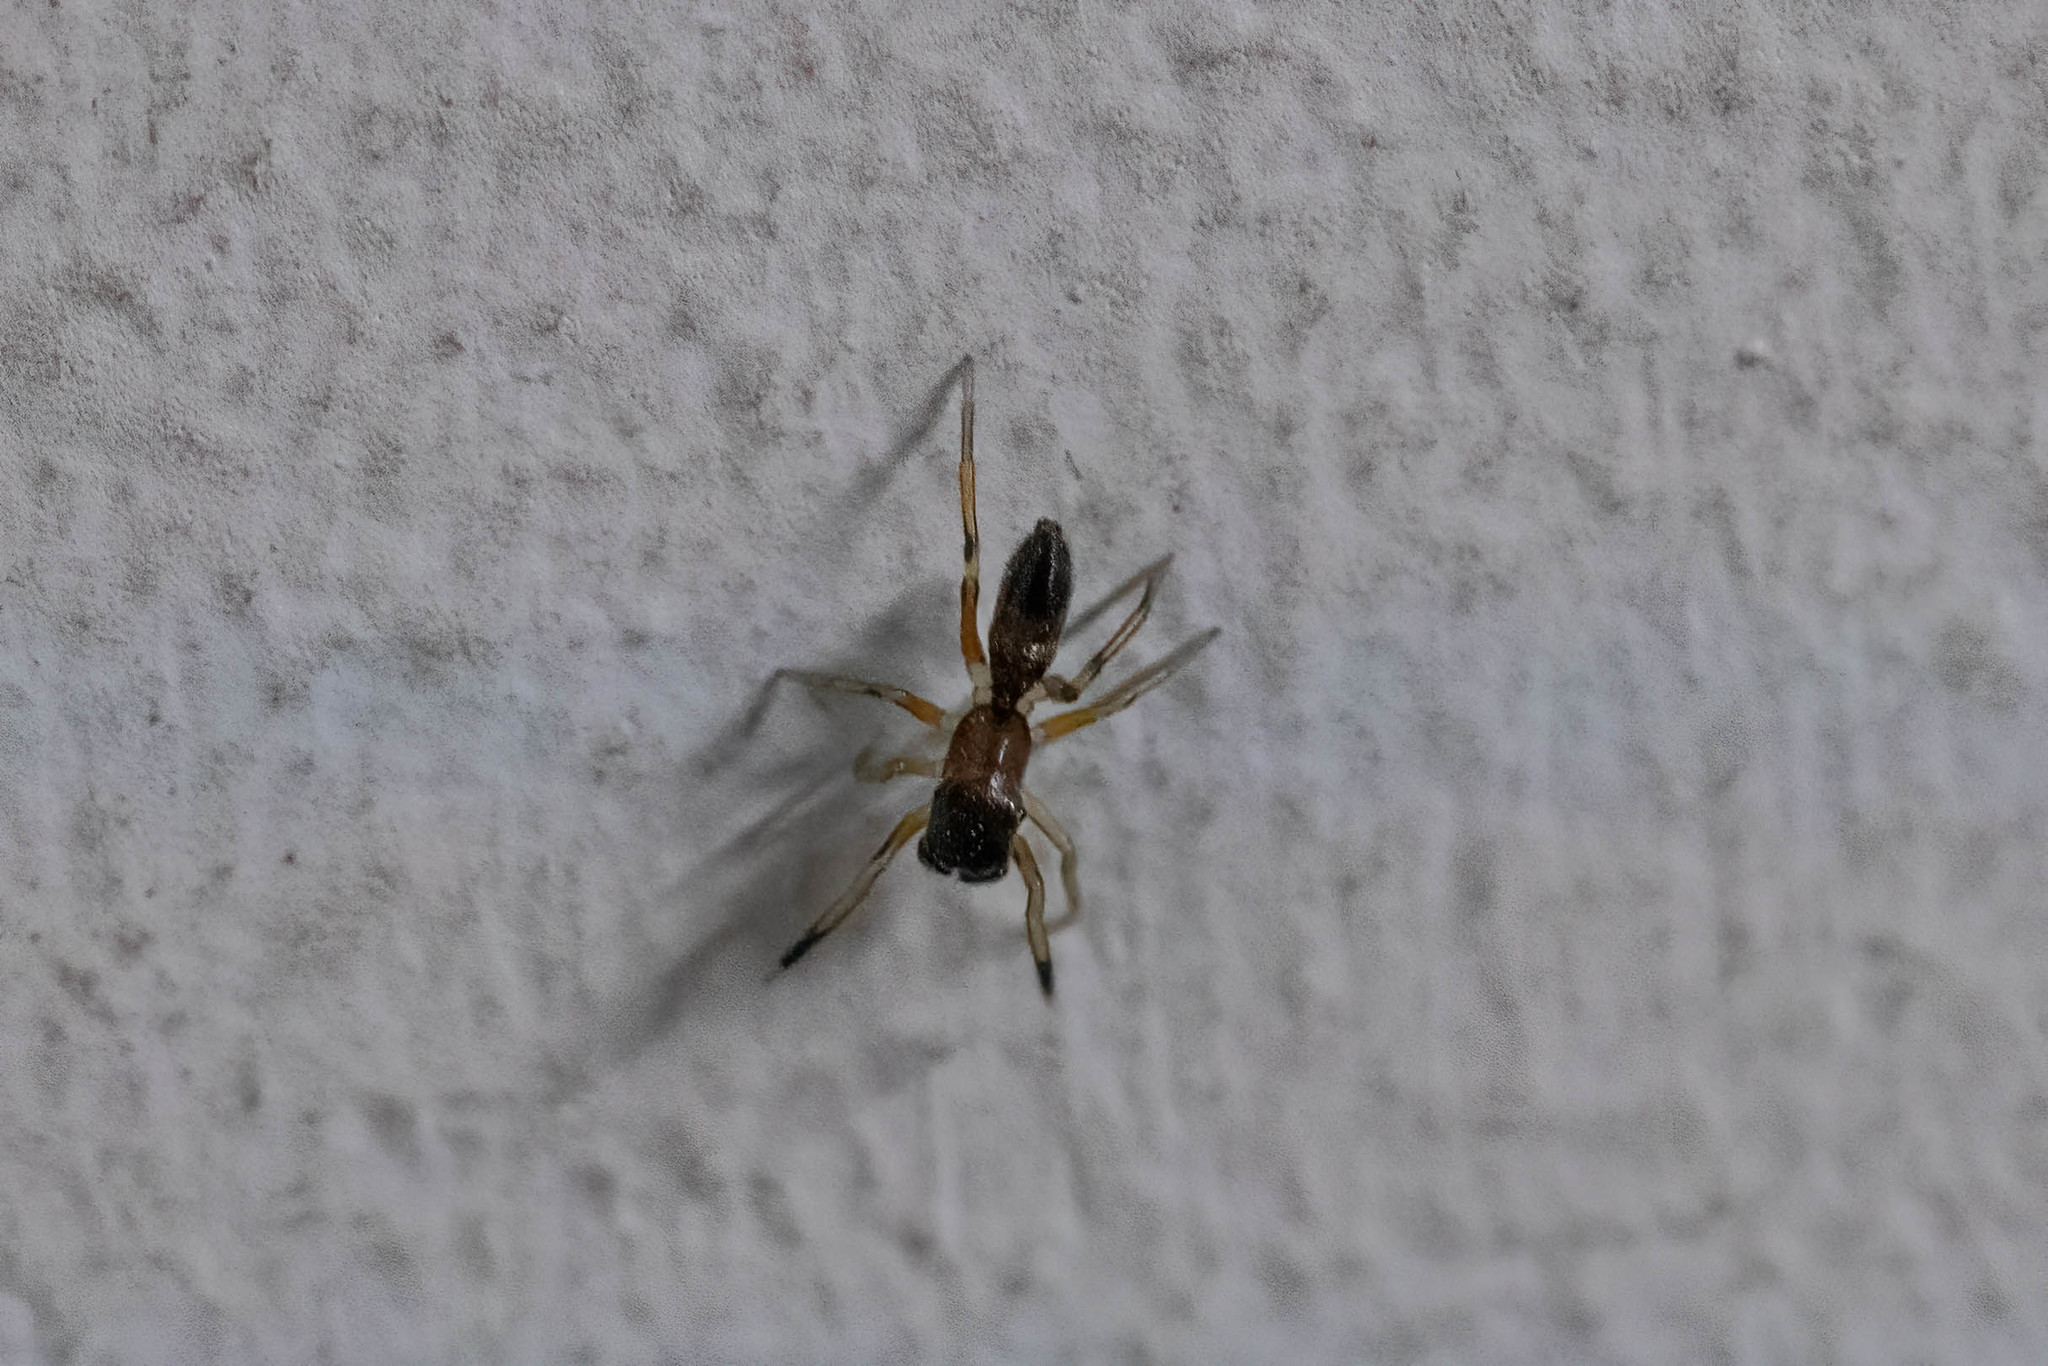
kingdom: Animalia
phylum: Arthropoda
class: Arachnida
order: Araneae
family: Salticidae
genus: Myrmarachne
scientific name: Myrmarachne formicaria
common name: Ant mimic jumping spider
